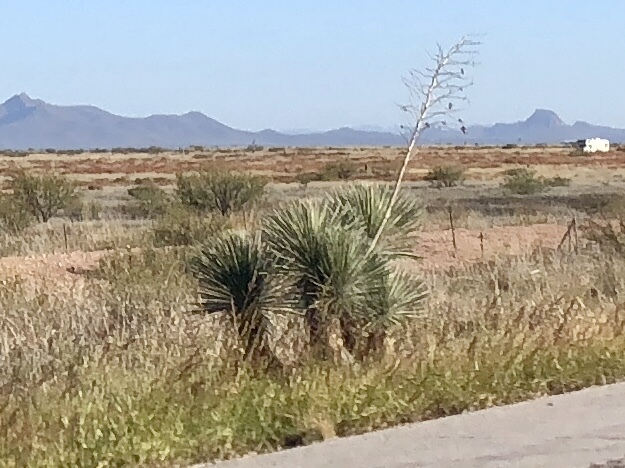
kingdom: Plantae
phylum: Tracheophyta
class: Liliopsida
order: Asparagales
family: Asparagaceae
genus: Yucca
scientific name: Yucca elata
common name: Palmella
